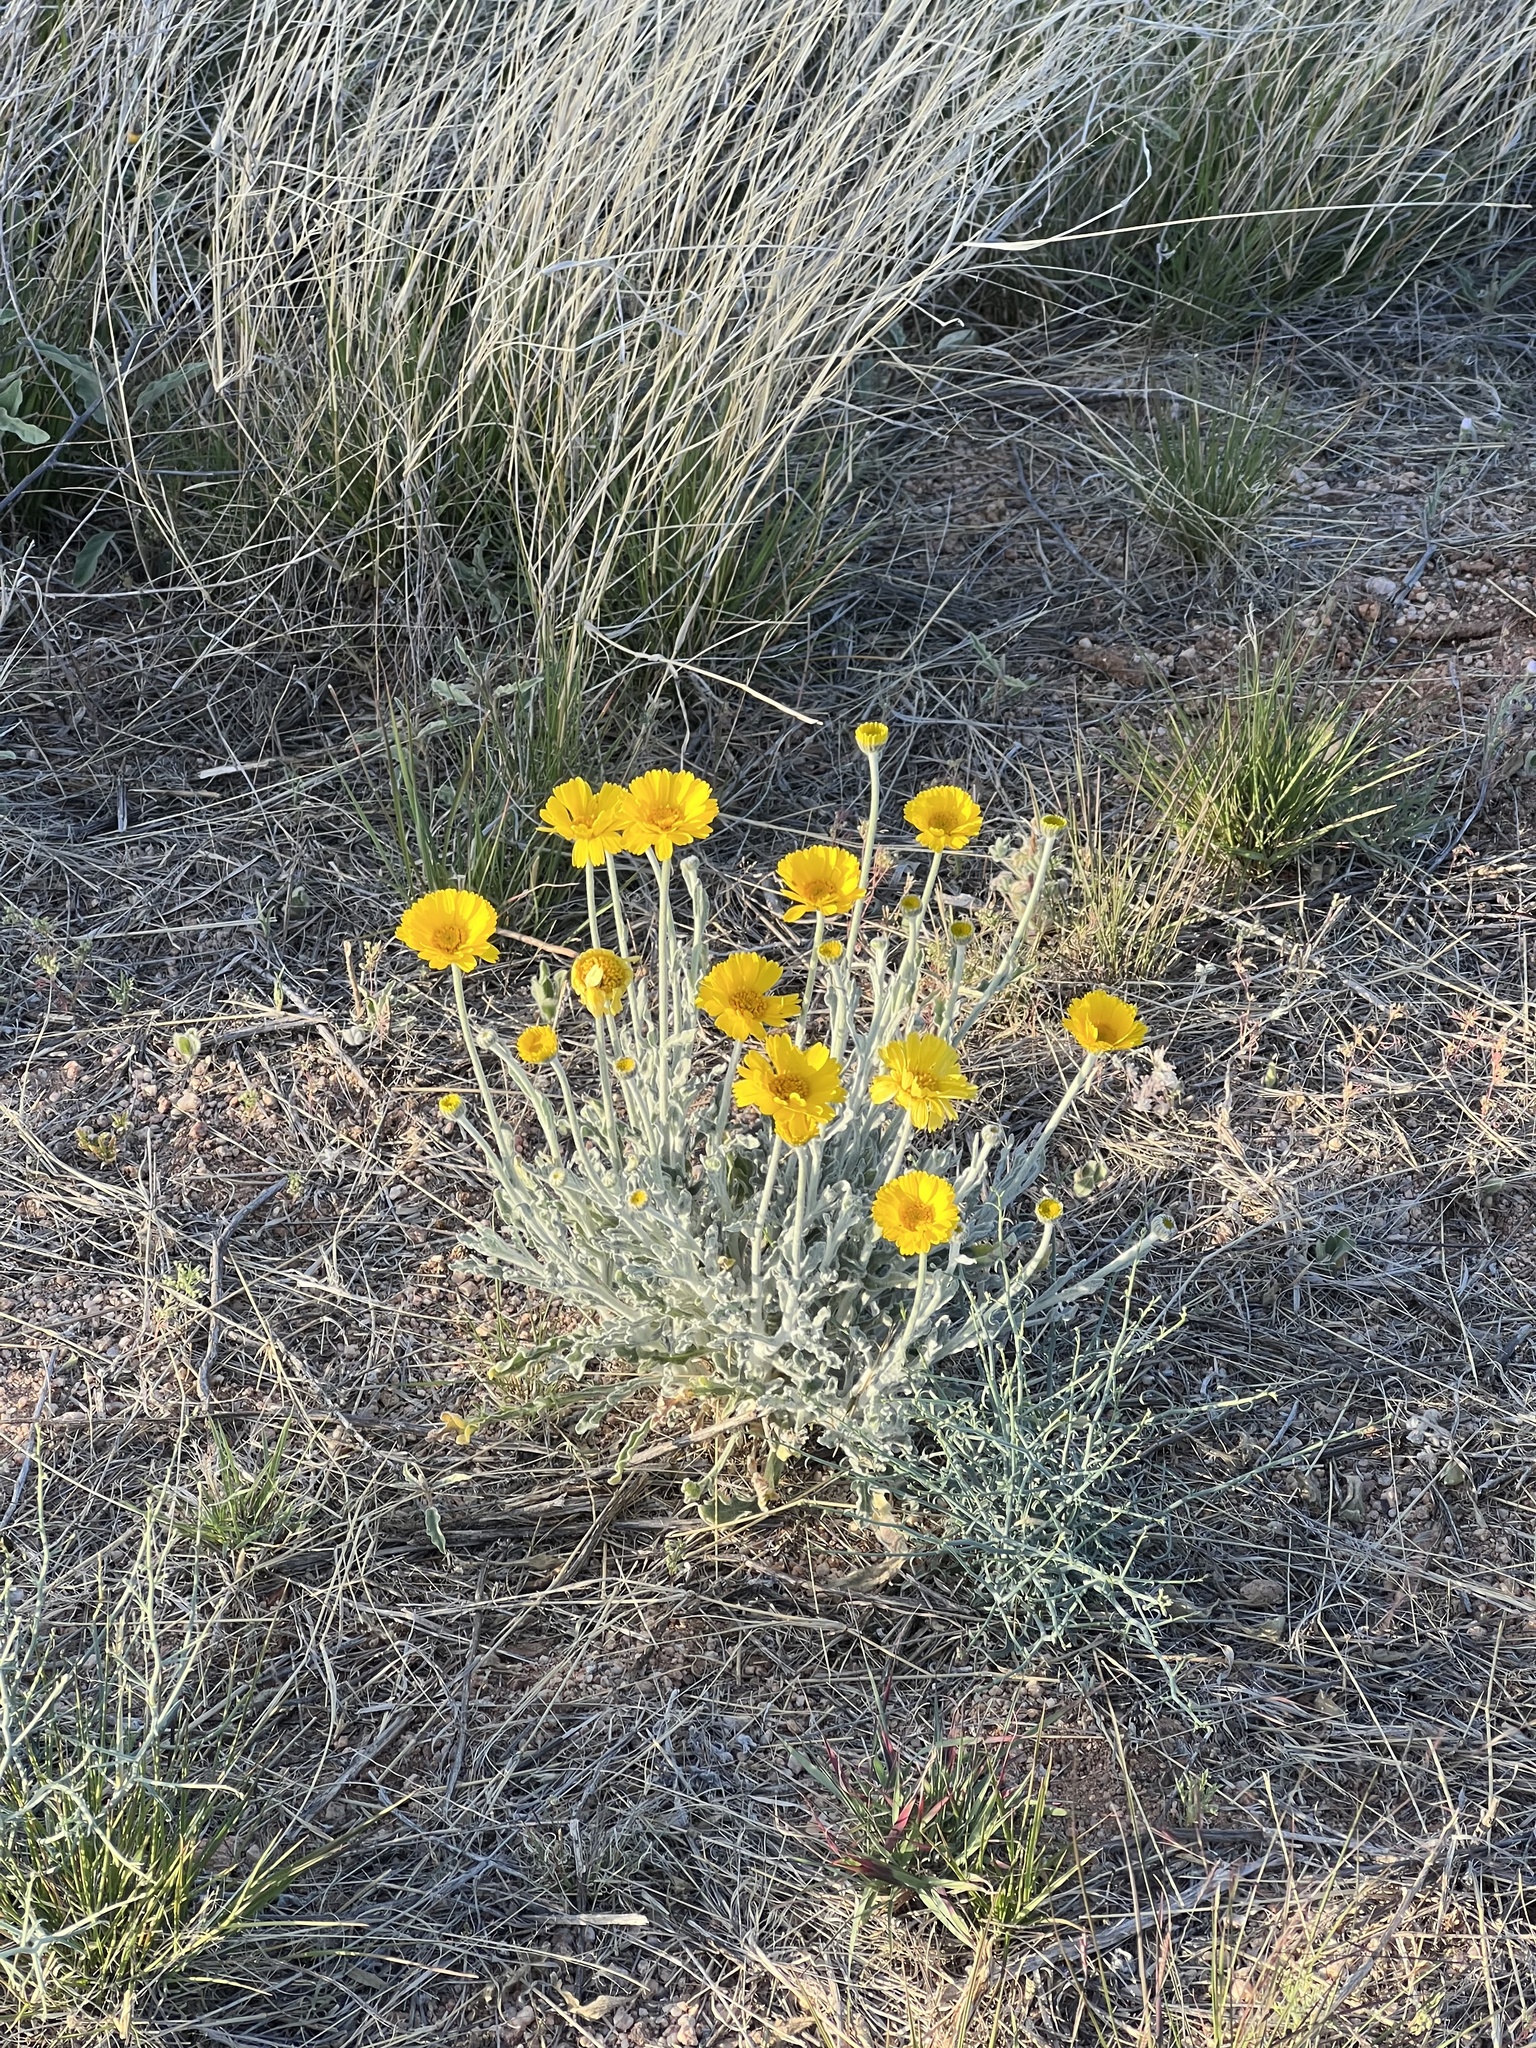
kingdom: Plantae
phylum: Tracheophyta
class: Magnoliopsida
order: Asterales
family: Asteraceae
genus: Baileya
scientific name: Baileya multiradiata
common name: Desert-marigold
